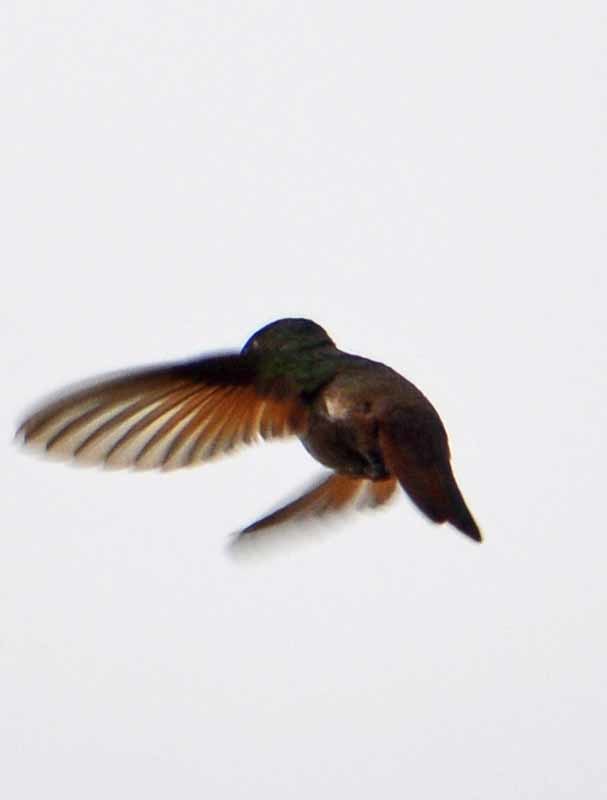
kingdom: Animalia
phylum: Chordata
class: Aves
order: Apodiformes
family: Trochilidae
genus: Saucerottia
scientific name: Saucerottia beryllina
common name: Berylline hummingbird
